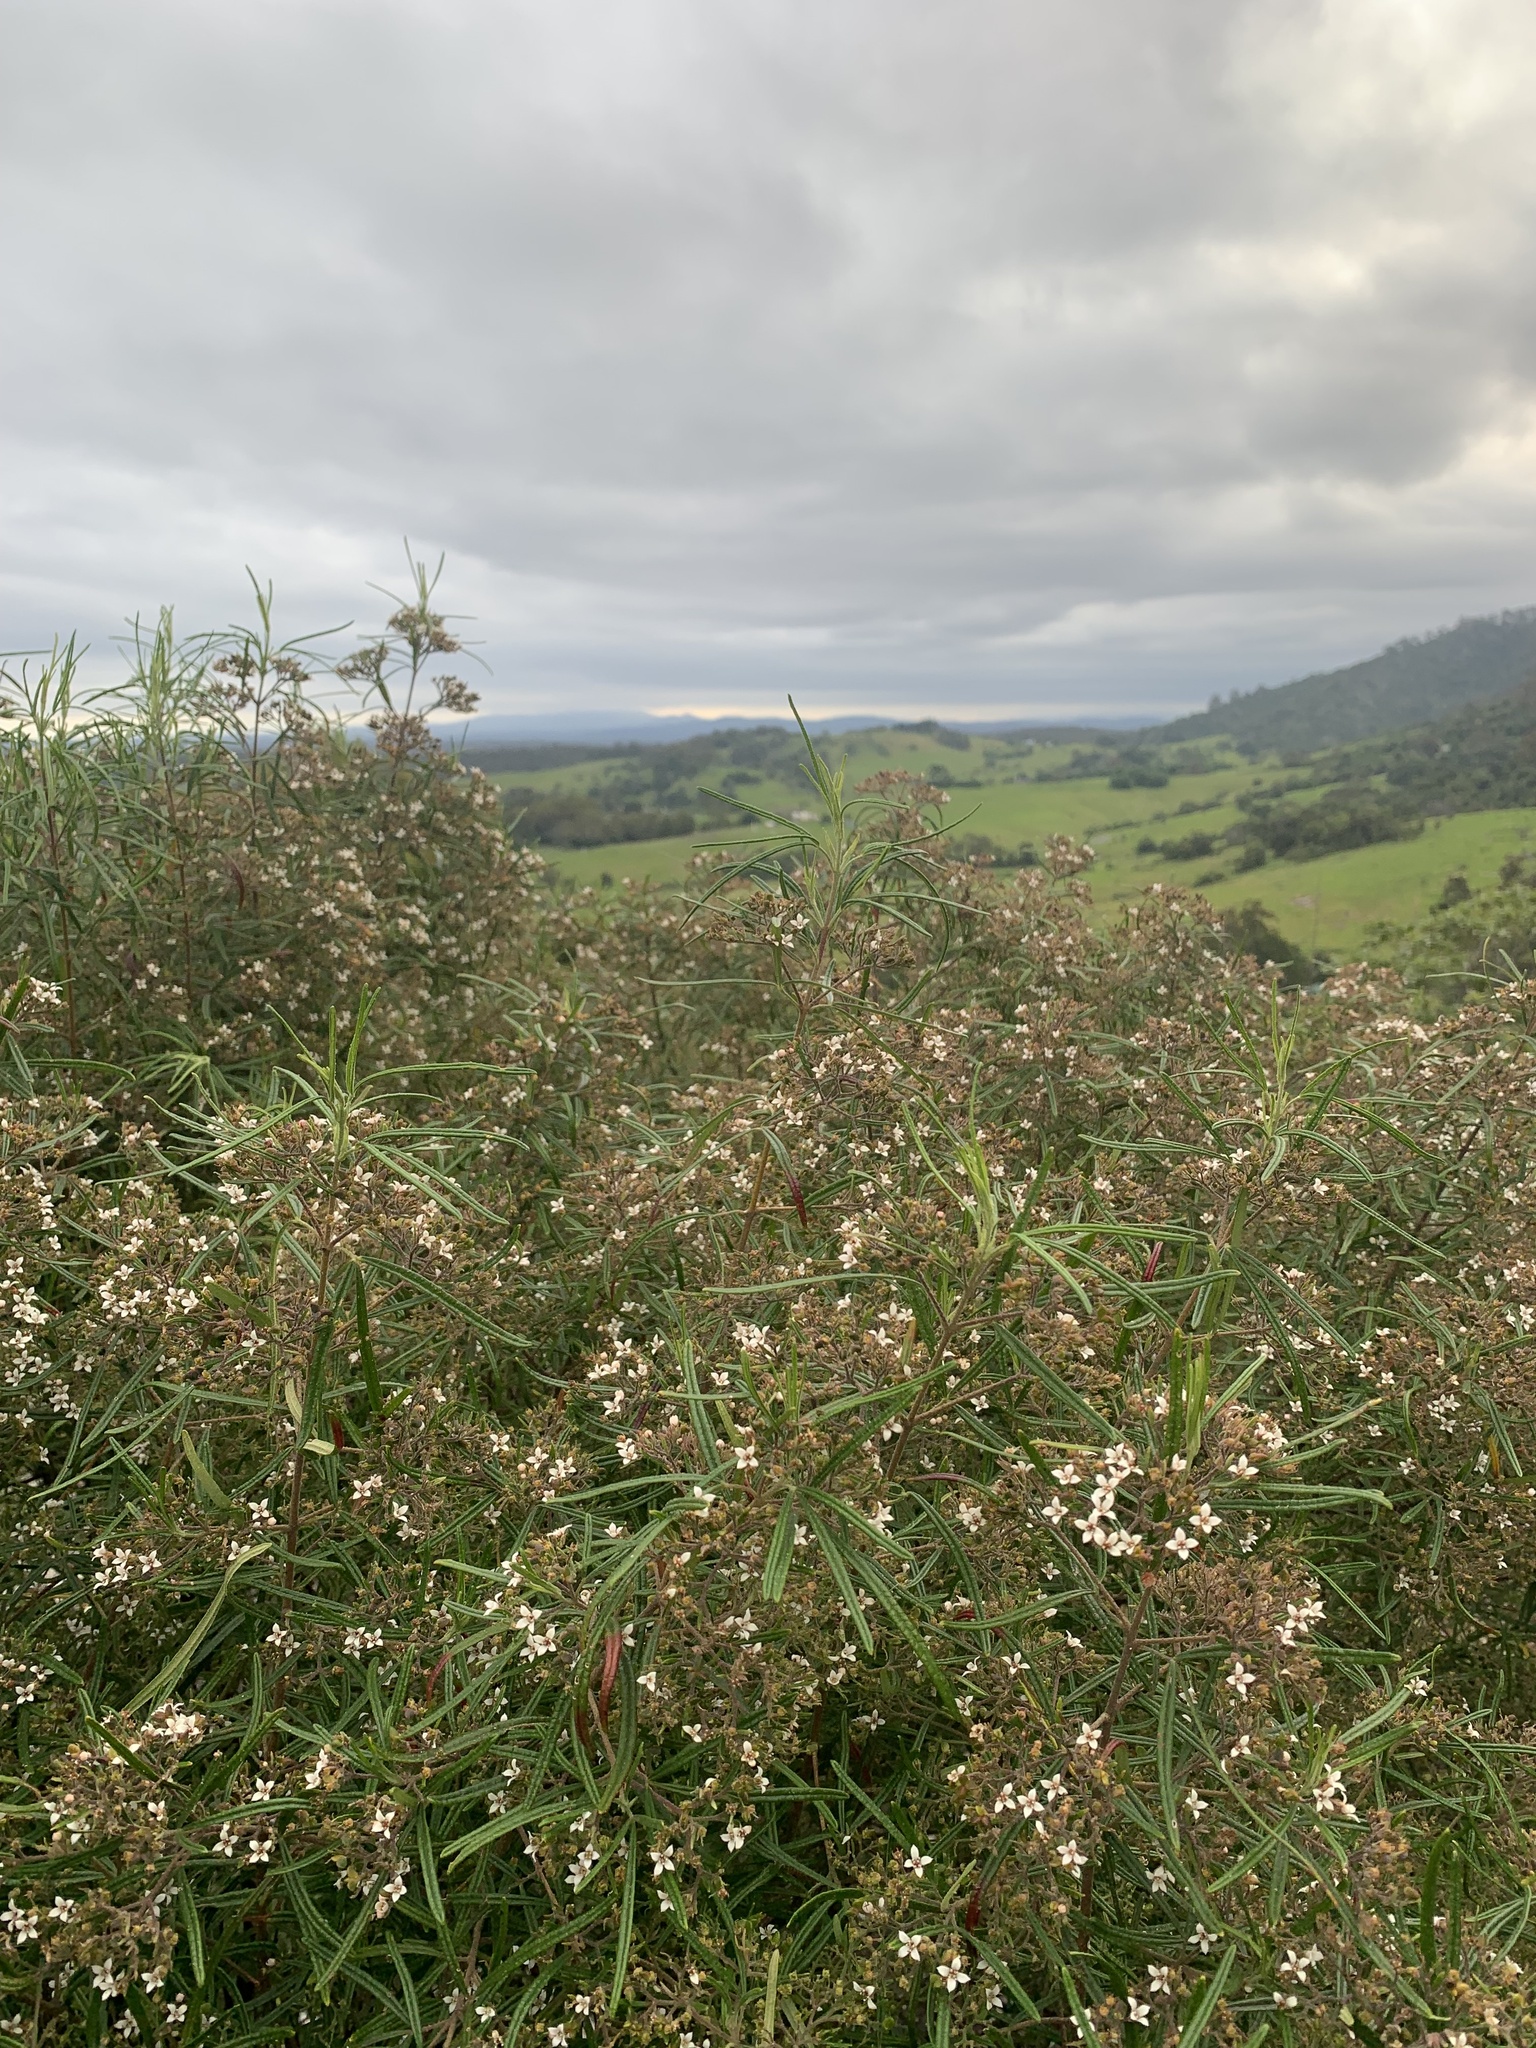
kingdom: Plantae
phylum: Tracheophyta
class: Magnoliopsida
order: Sapindales
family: Rutaceae
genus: Zieria
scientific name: Zieria tuberculata
